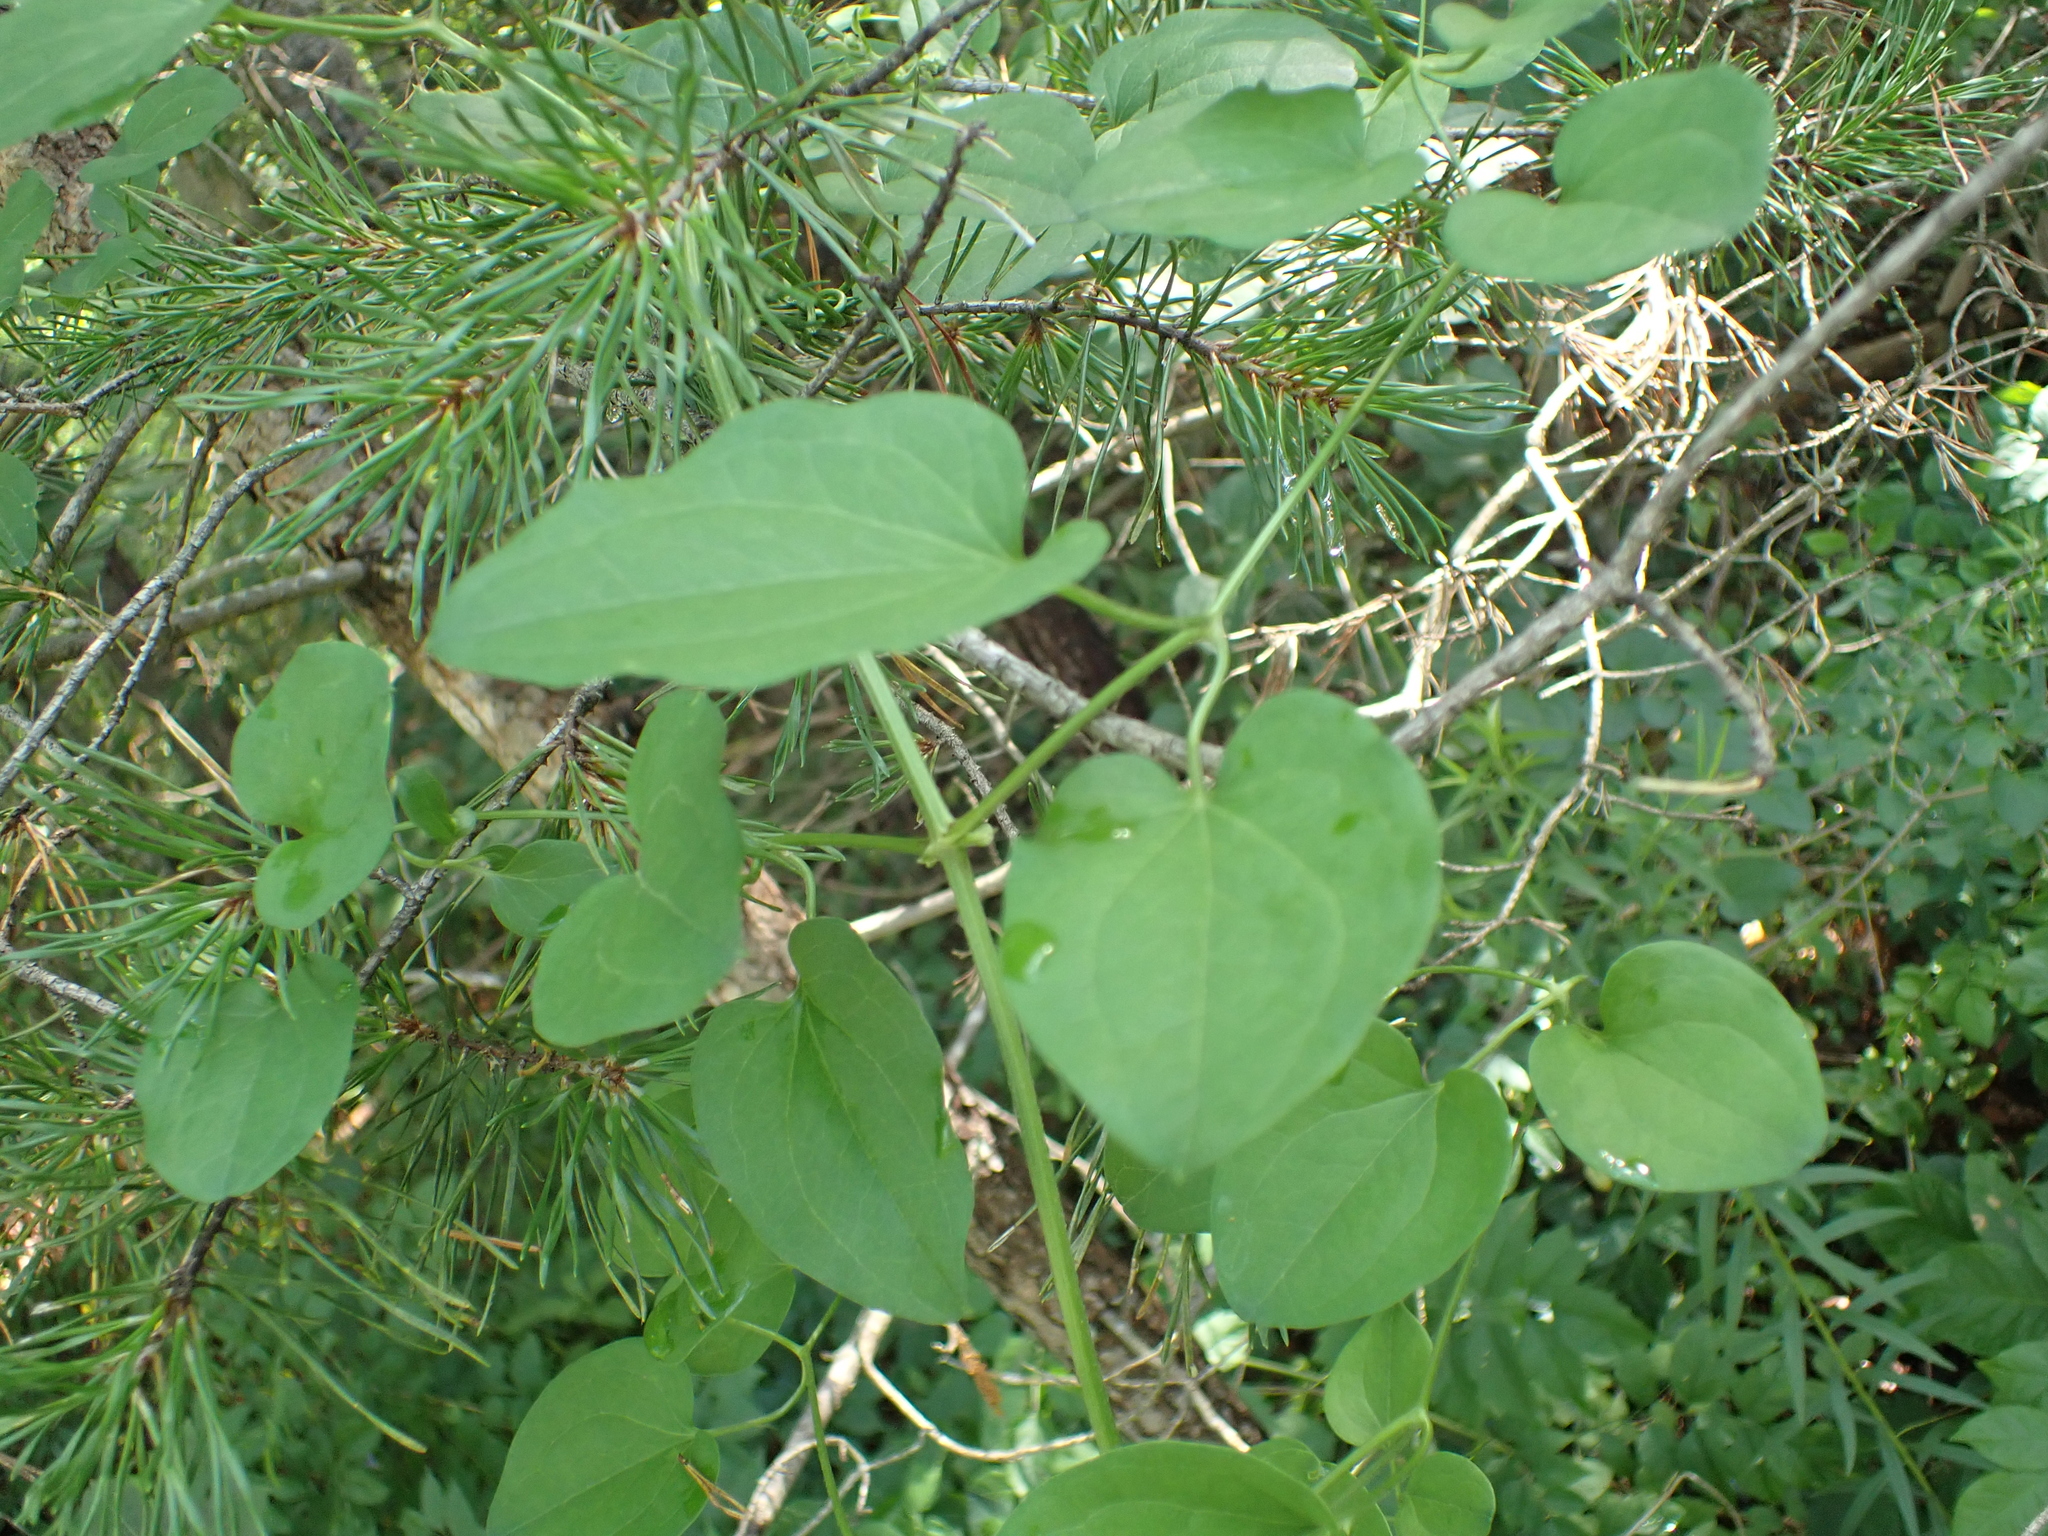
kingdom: Plantae
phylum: Tracheophyta
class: Magnoliopsida
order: Ranunculales
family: Ranunculaceae
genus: Clematis
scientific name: Clematis terniflora
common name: Sweet autumn clematis
